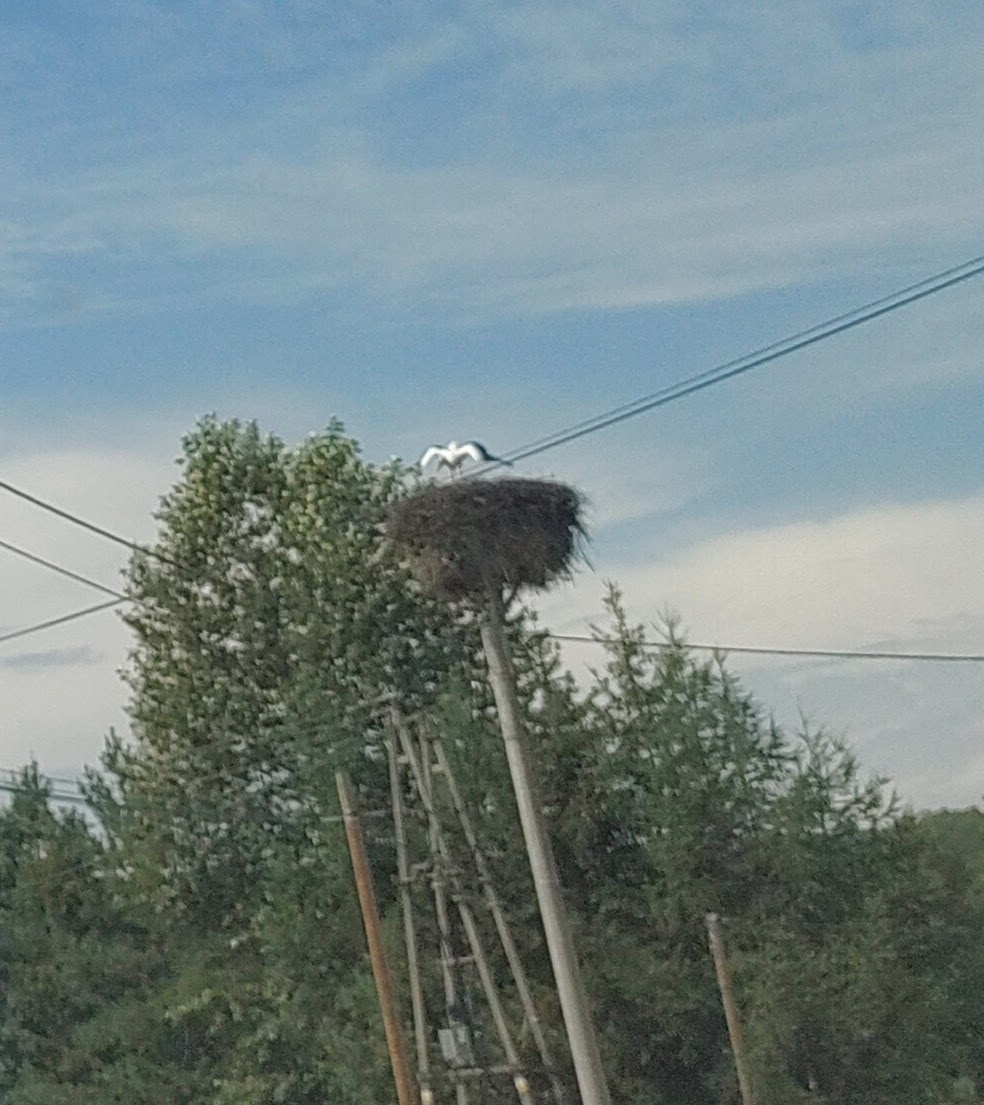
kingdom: Animalia
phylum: Chordata
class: Aves
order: Ciconiiformes
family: Ciconiidae
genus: Ciconia
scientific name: Ciconia ciconia
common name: White stork
